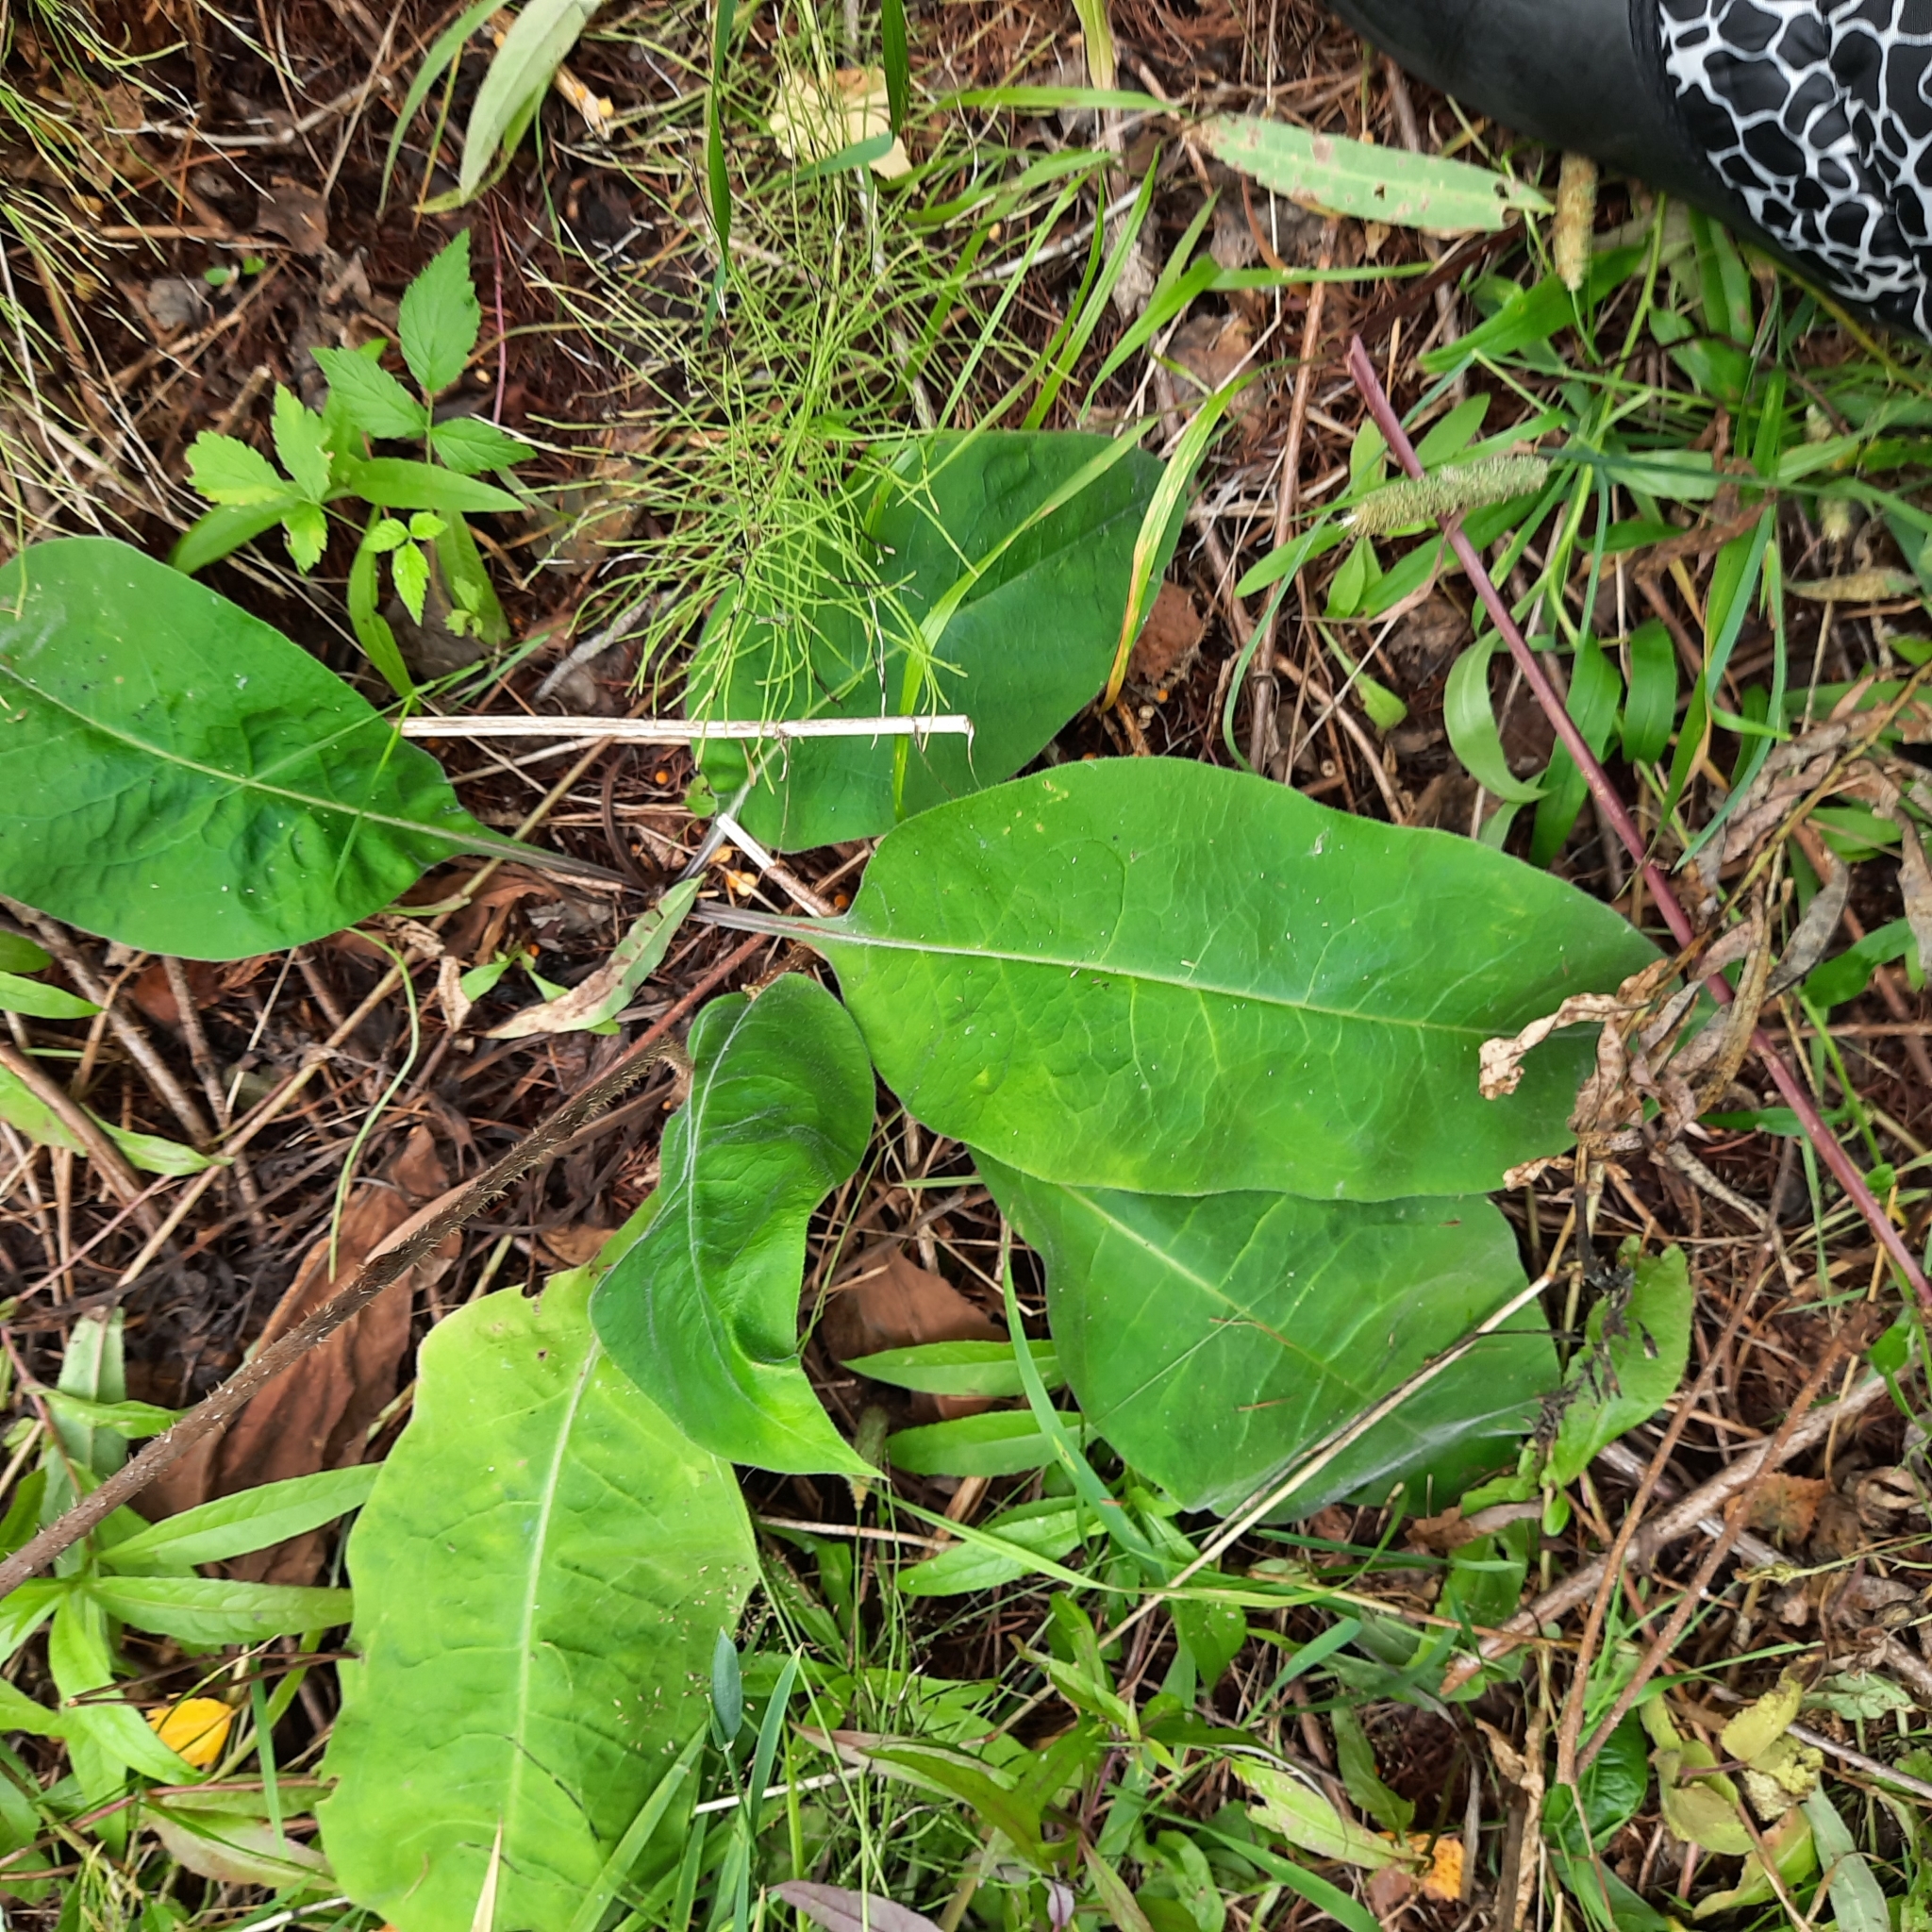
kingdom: Plantae
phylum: Tracheophyta
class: Magnoliopsida
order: Boraginales
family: Boraginaceae
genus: Pulmonaria
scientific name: Pulmonaria mollis
